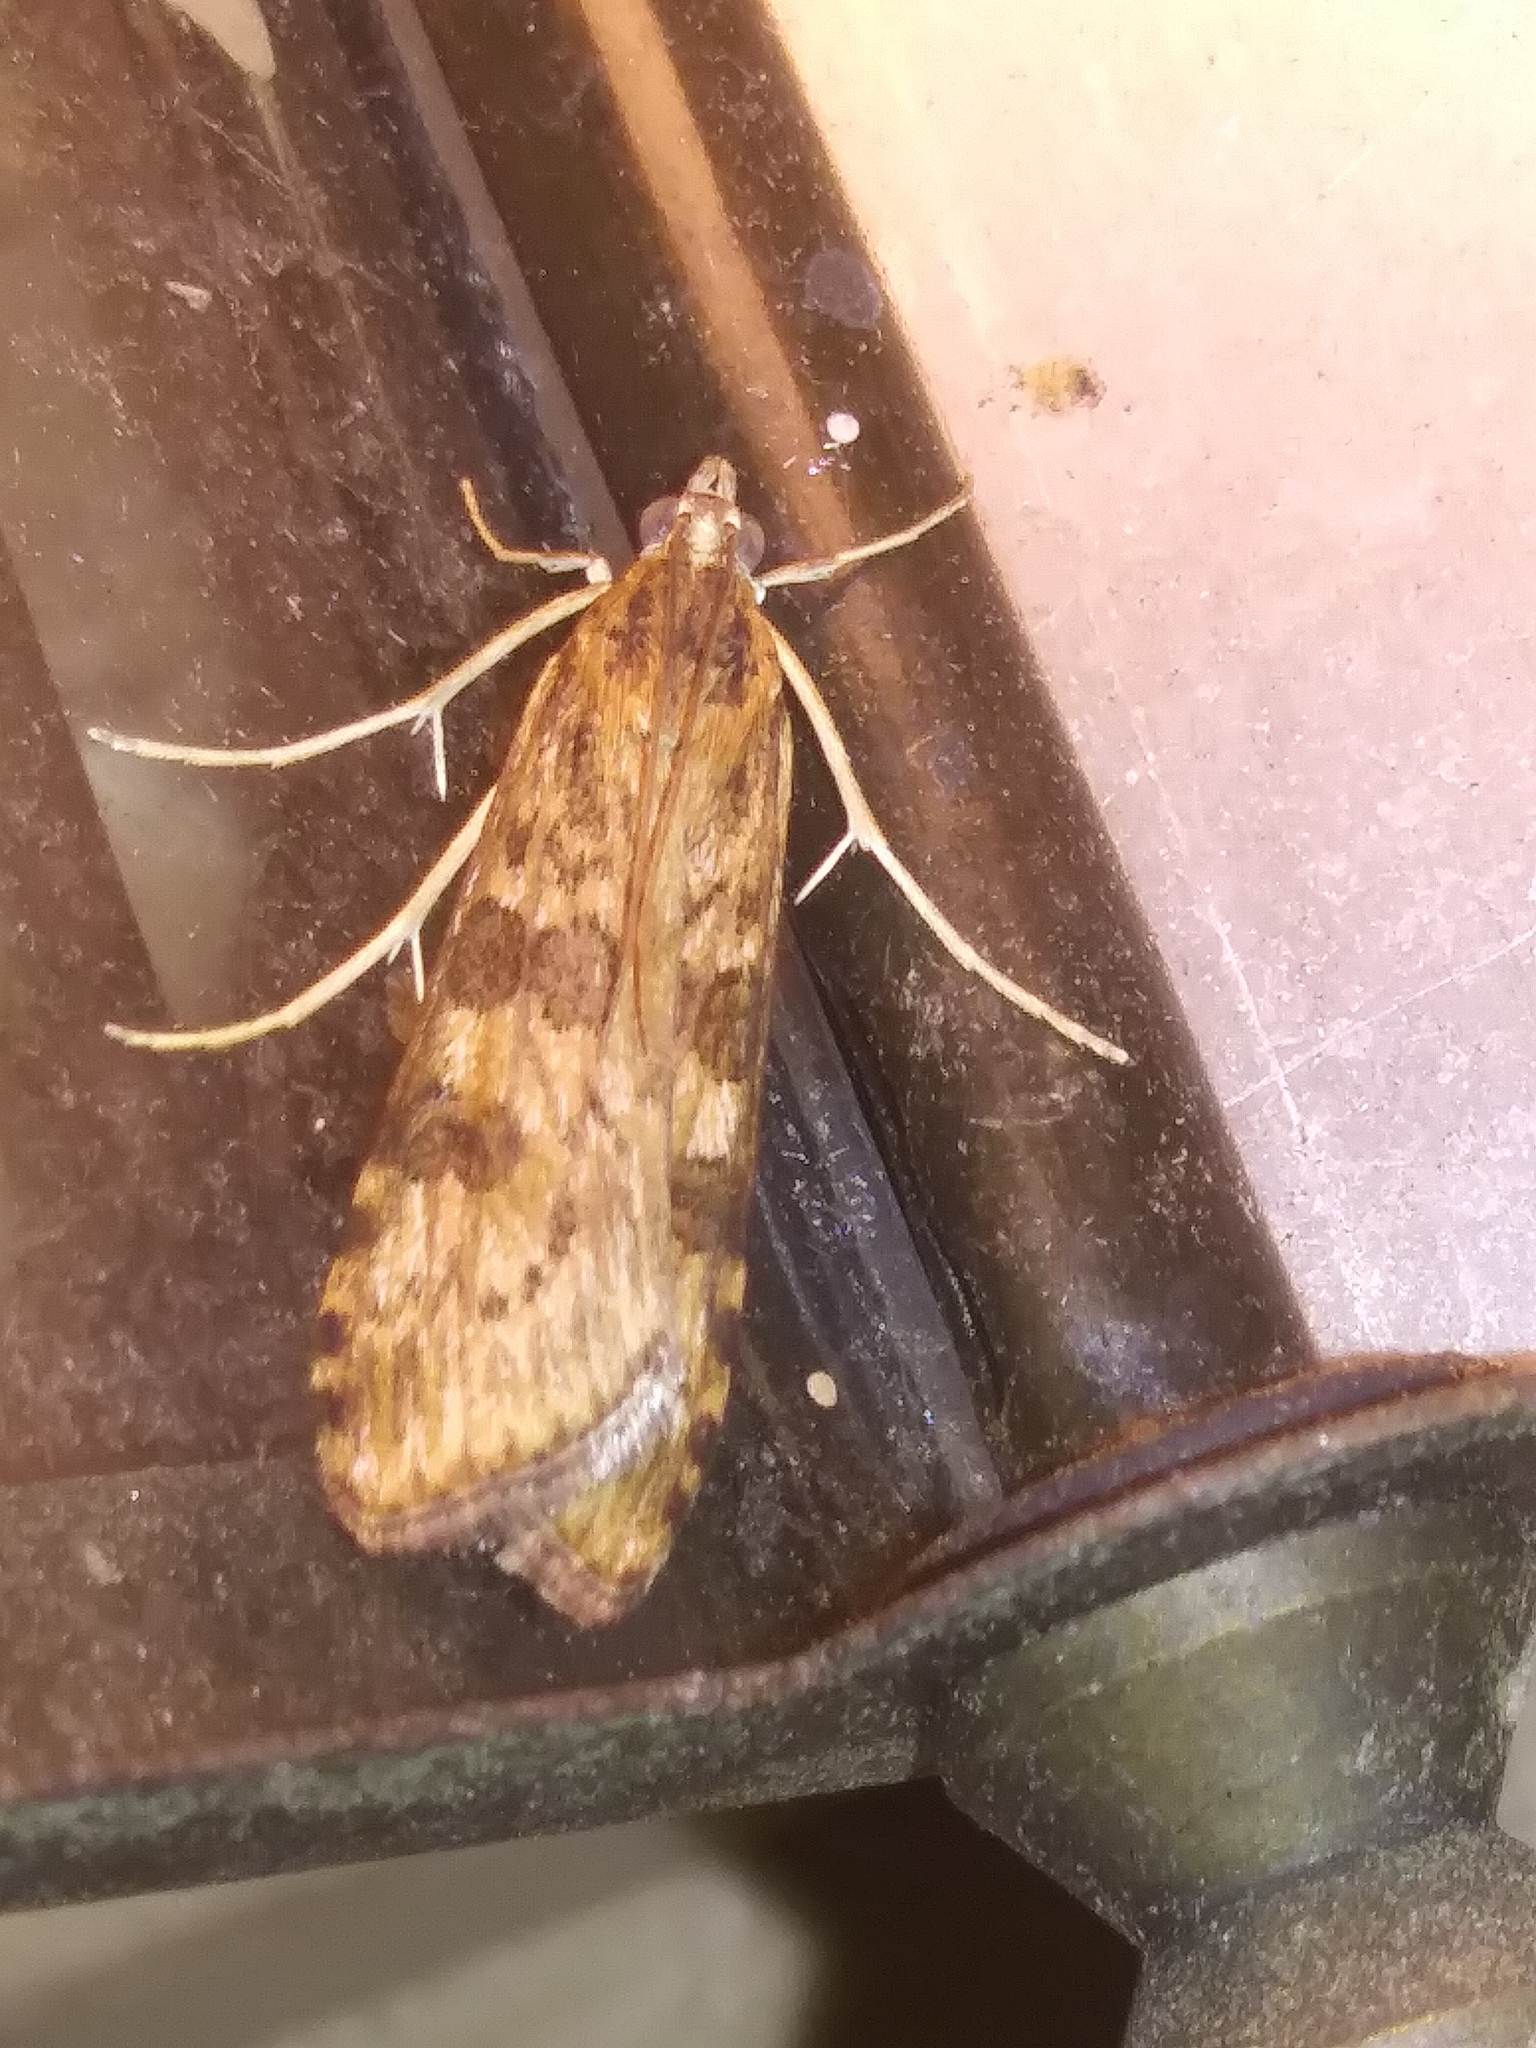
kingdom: Animalia
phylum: Arthropoda
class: Insecta
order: Lepidoptera
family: Crambidae
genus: Nomophila
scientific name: Nomophila nearctica
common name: American rush veneer
